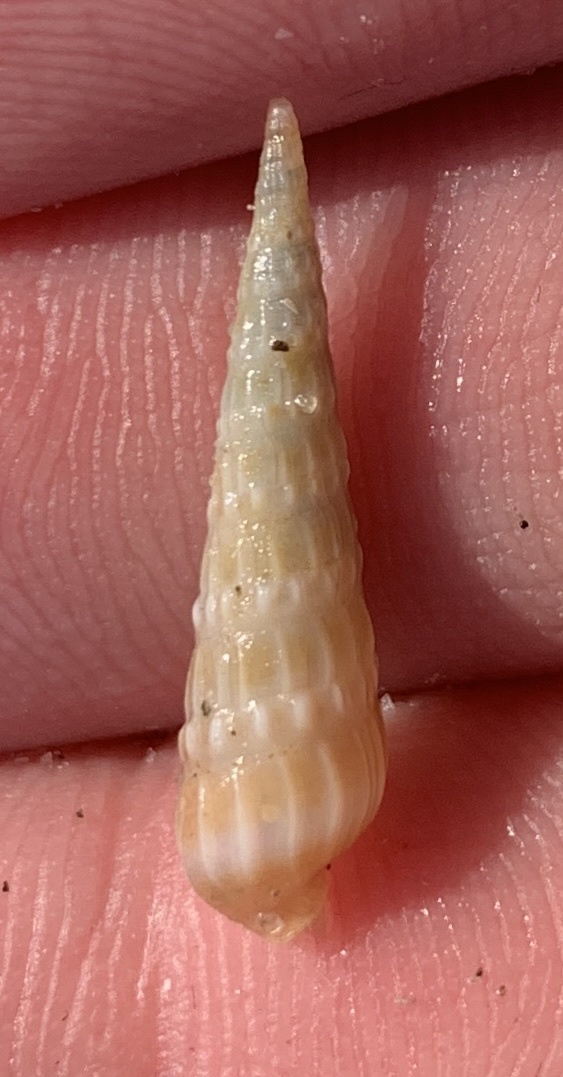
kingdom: Animalia
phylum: Mollusca
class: Gastropoda
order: Neogastropoda
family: Terebridae
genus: Neoterebra
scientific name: Neoterebra dislocata
